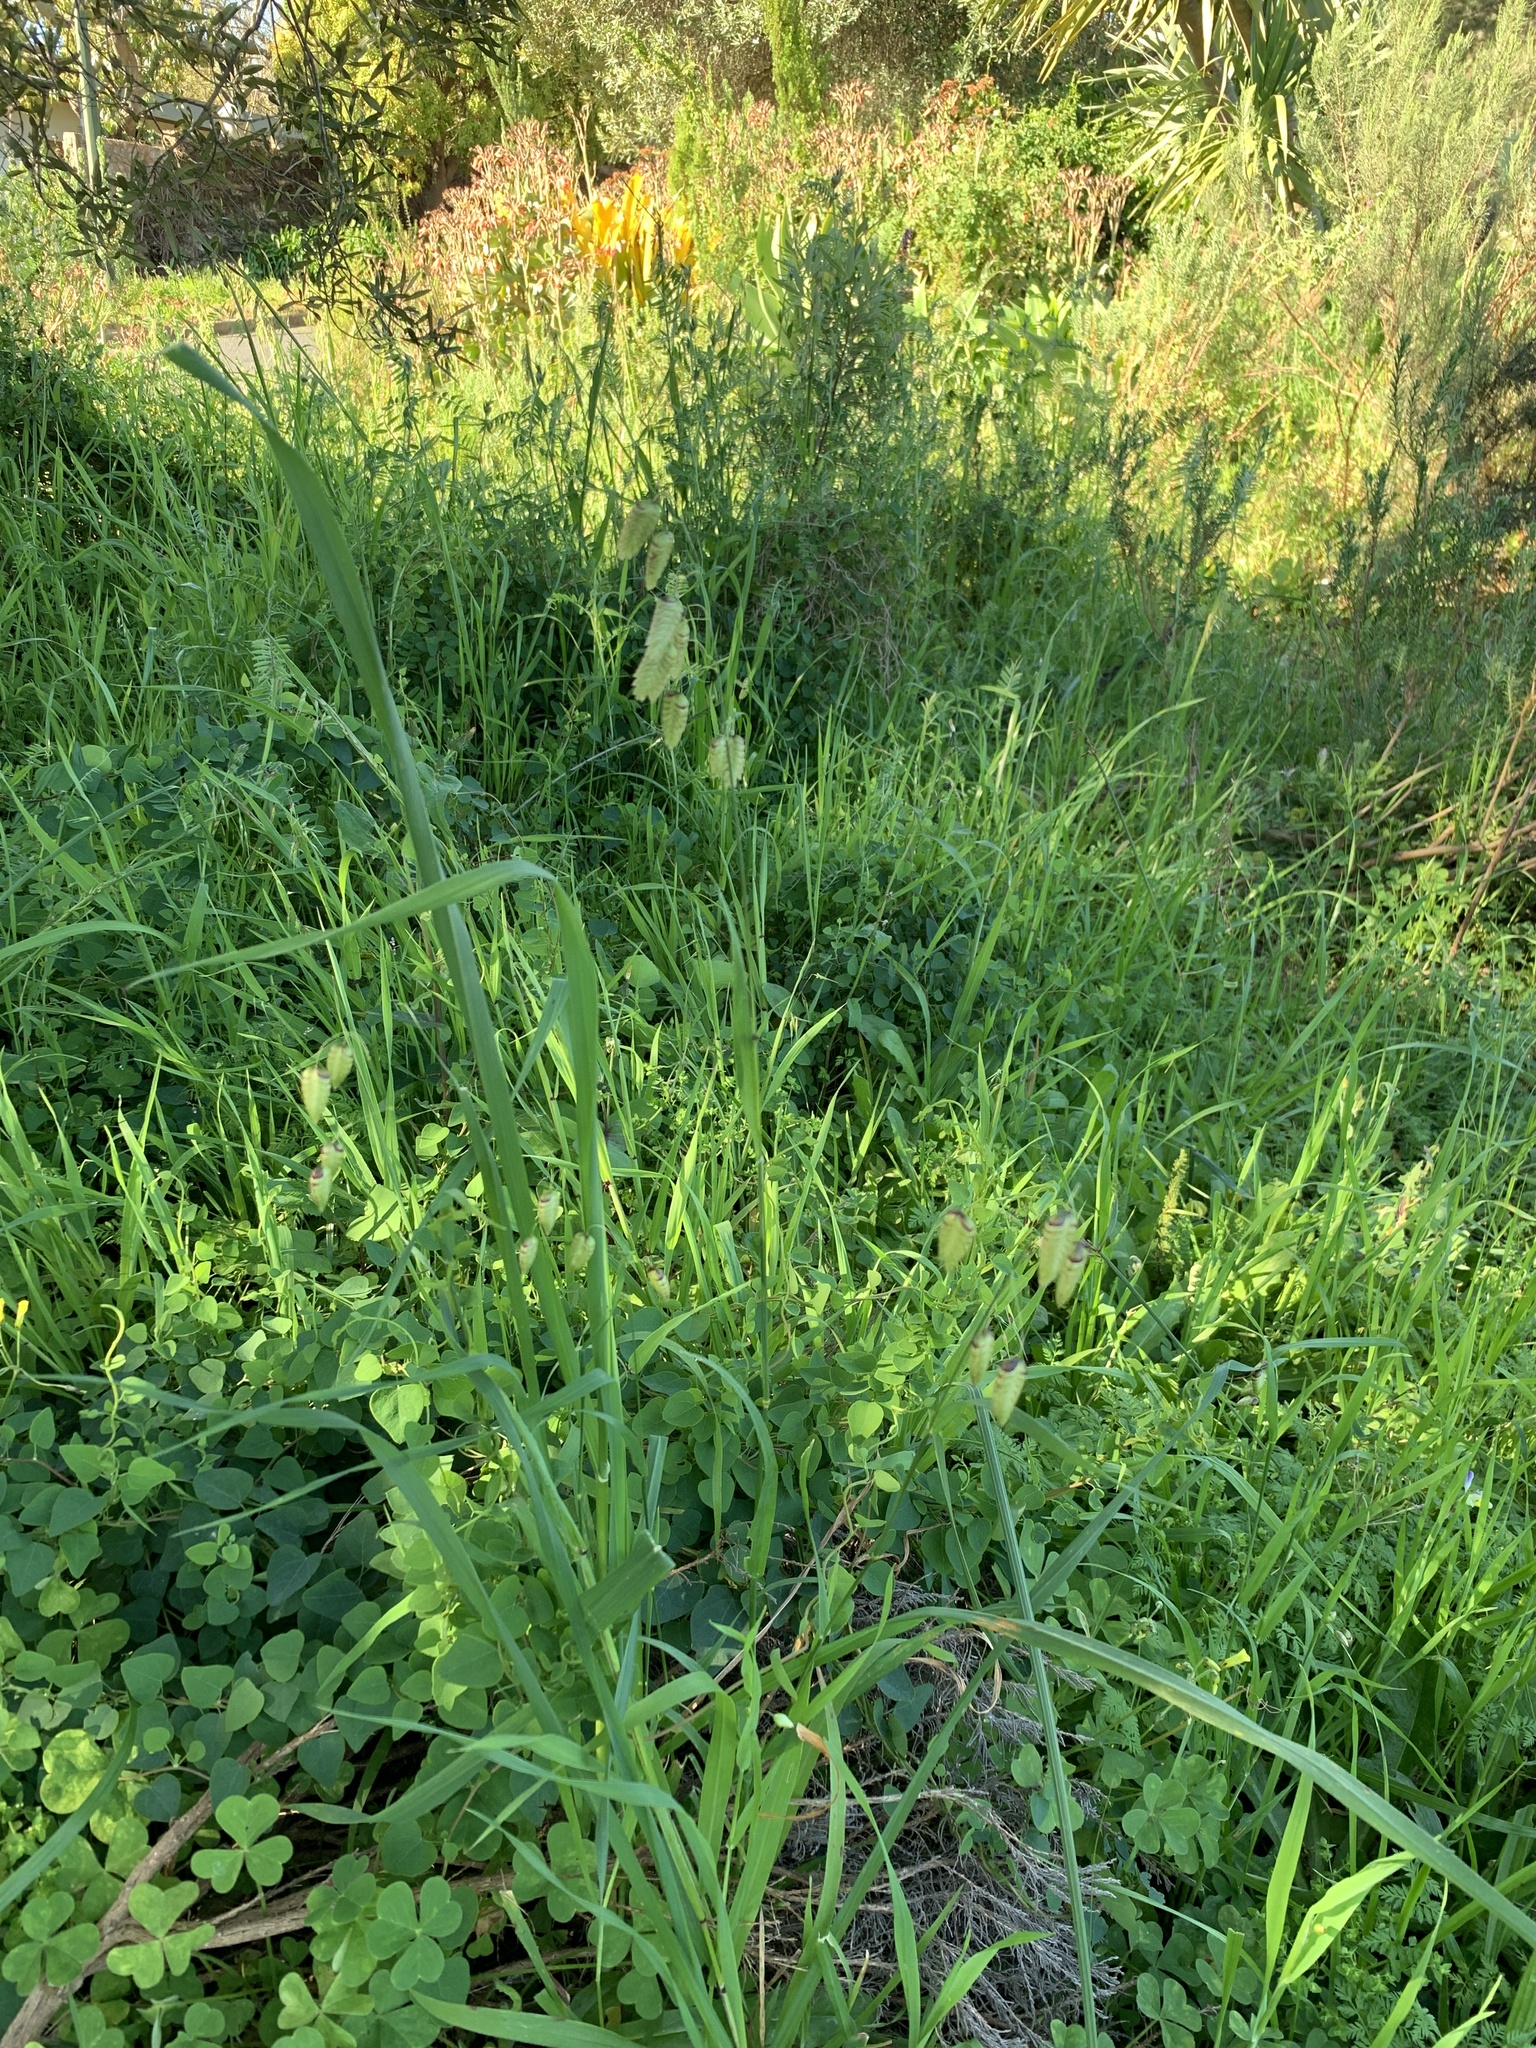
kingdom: Plantae
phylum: Tracheophyta
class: Liliopsida
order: Poales
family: Poaceae
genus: Briza
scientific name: Briza maxima
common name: Big quakinggrass
